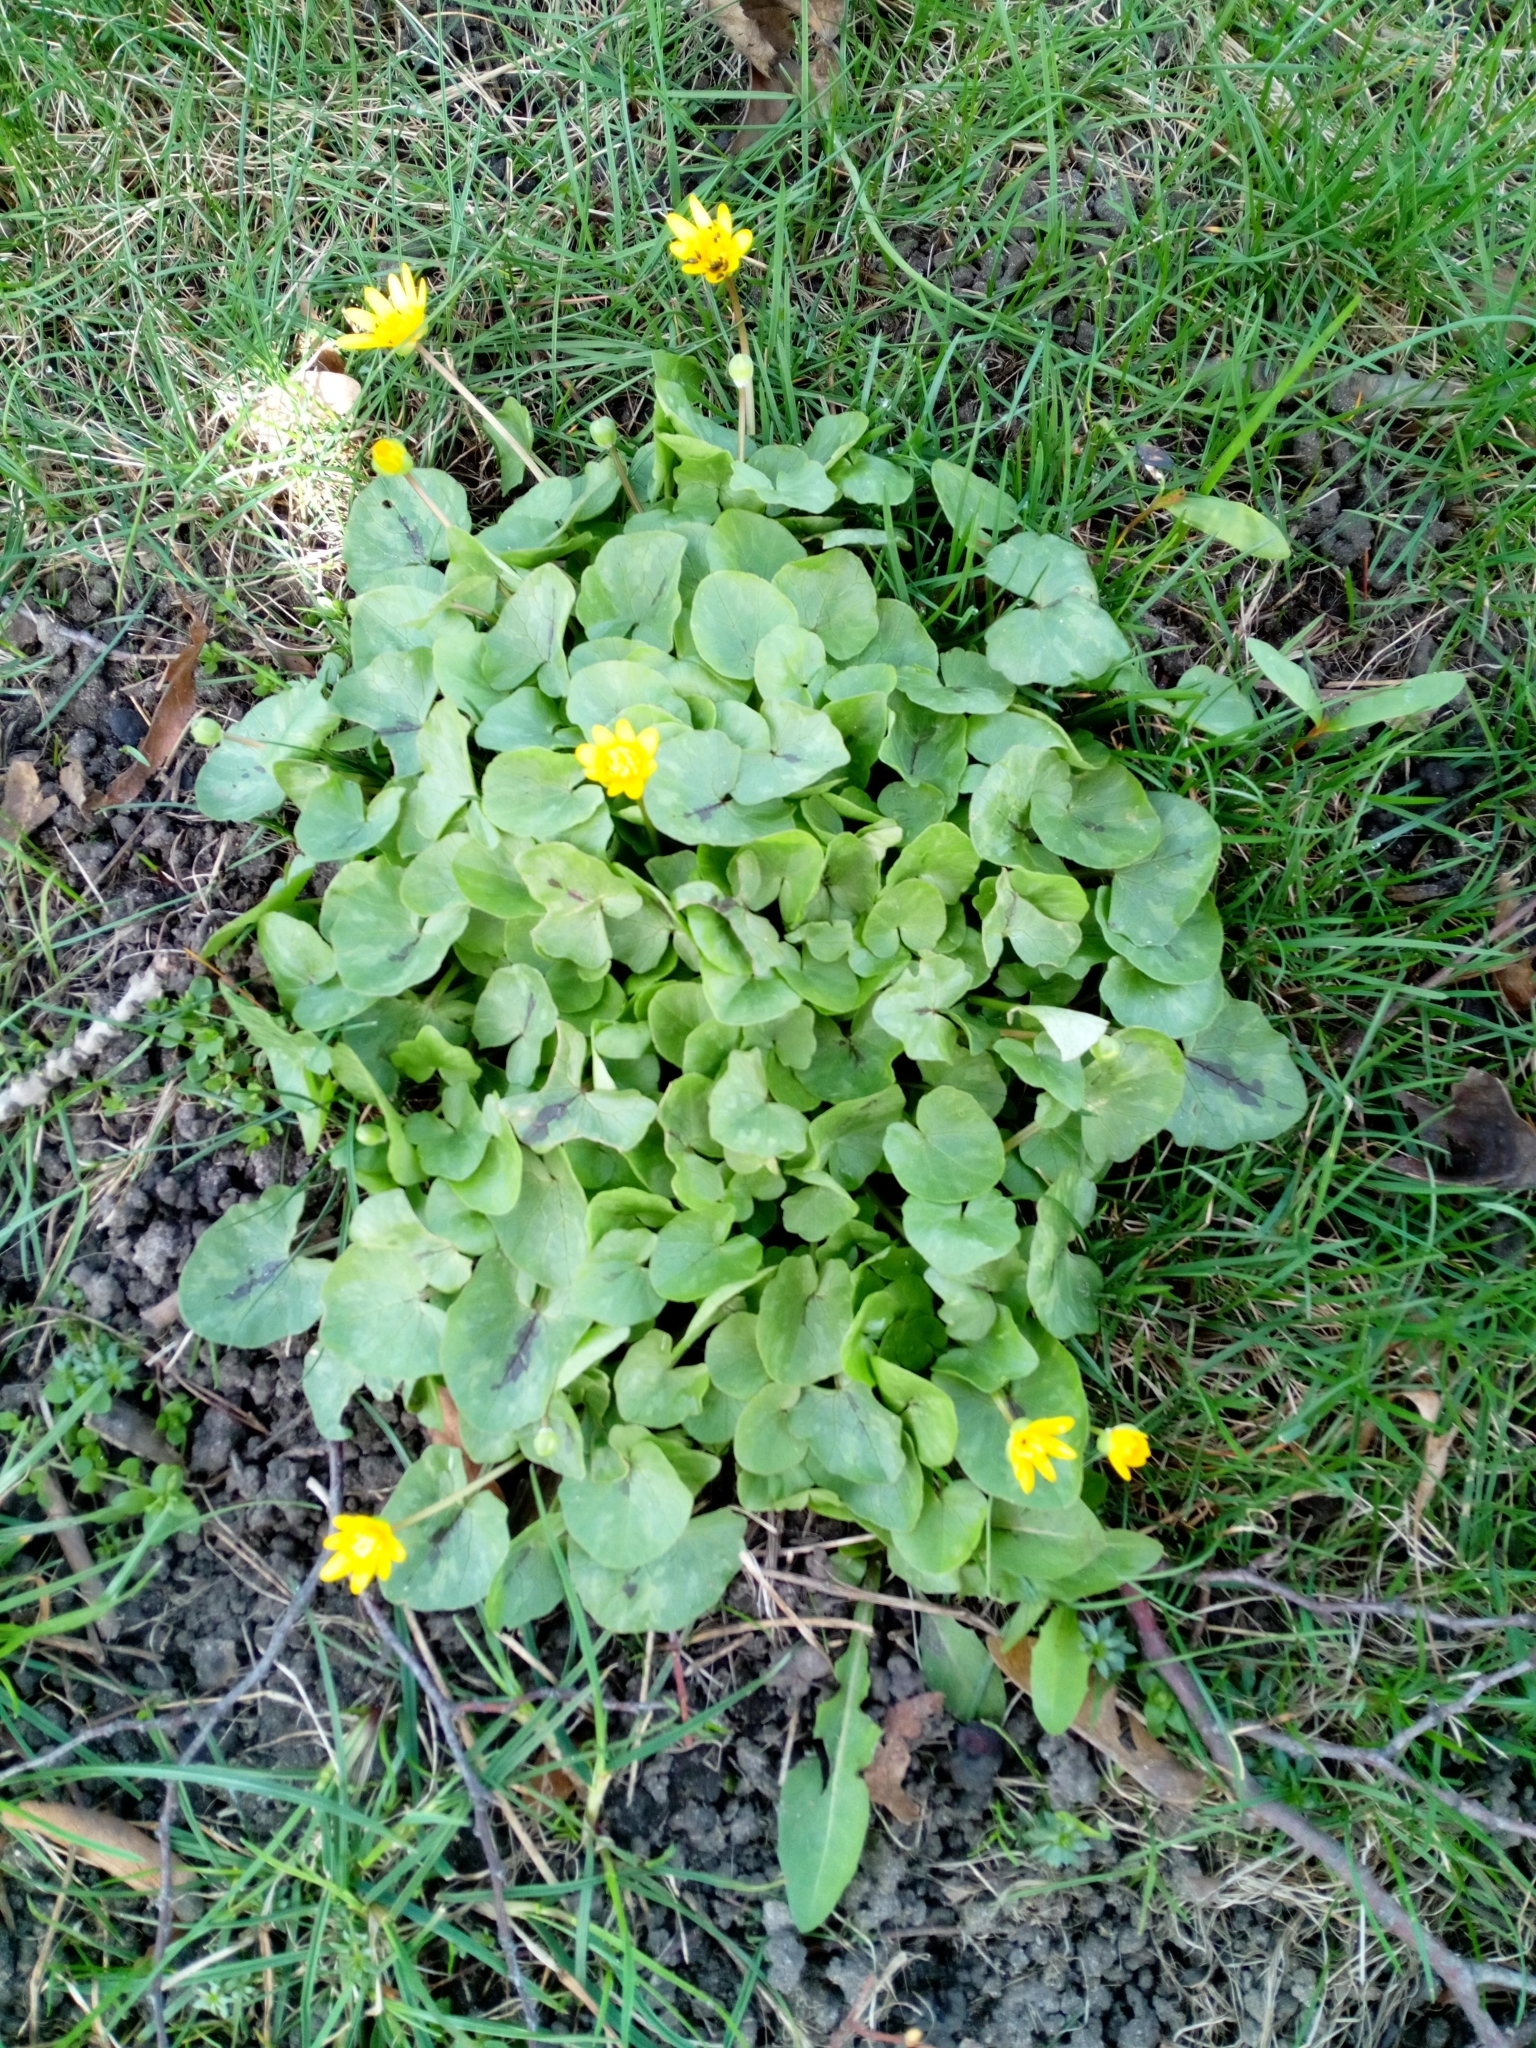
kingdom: Plantae
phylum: Tracheophyta
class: Magnoliopsida
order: Ranunculales
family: Ranunculaceae
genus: Ficaria
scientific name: Ficaria verna
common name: Lesser celandine
